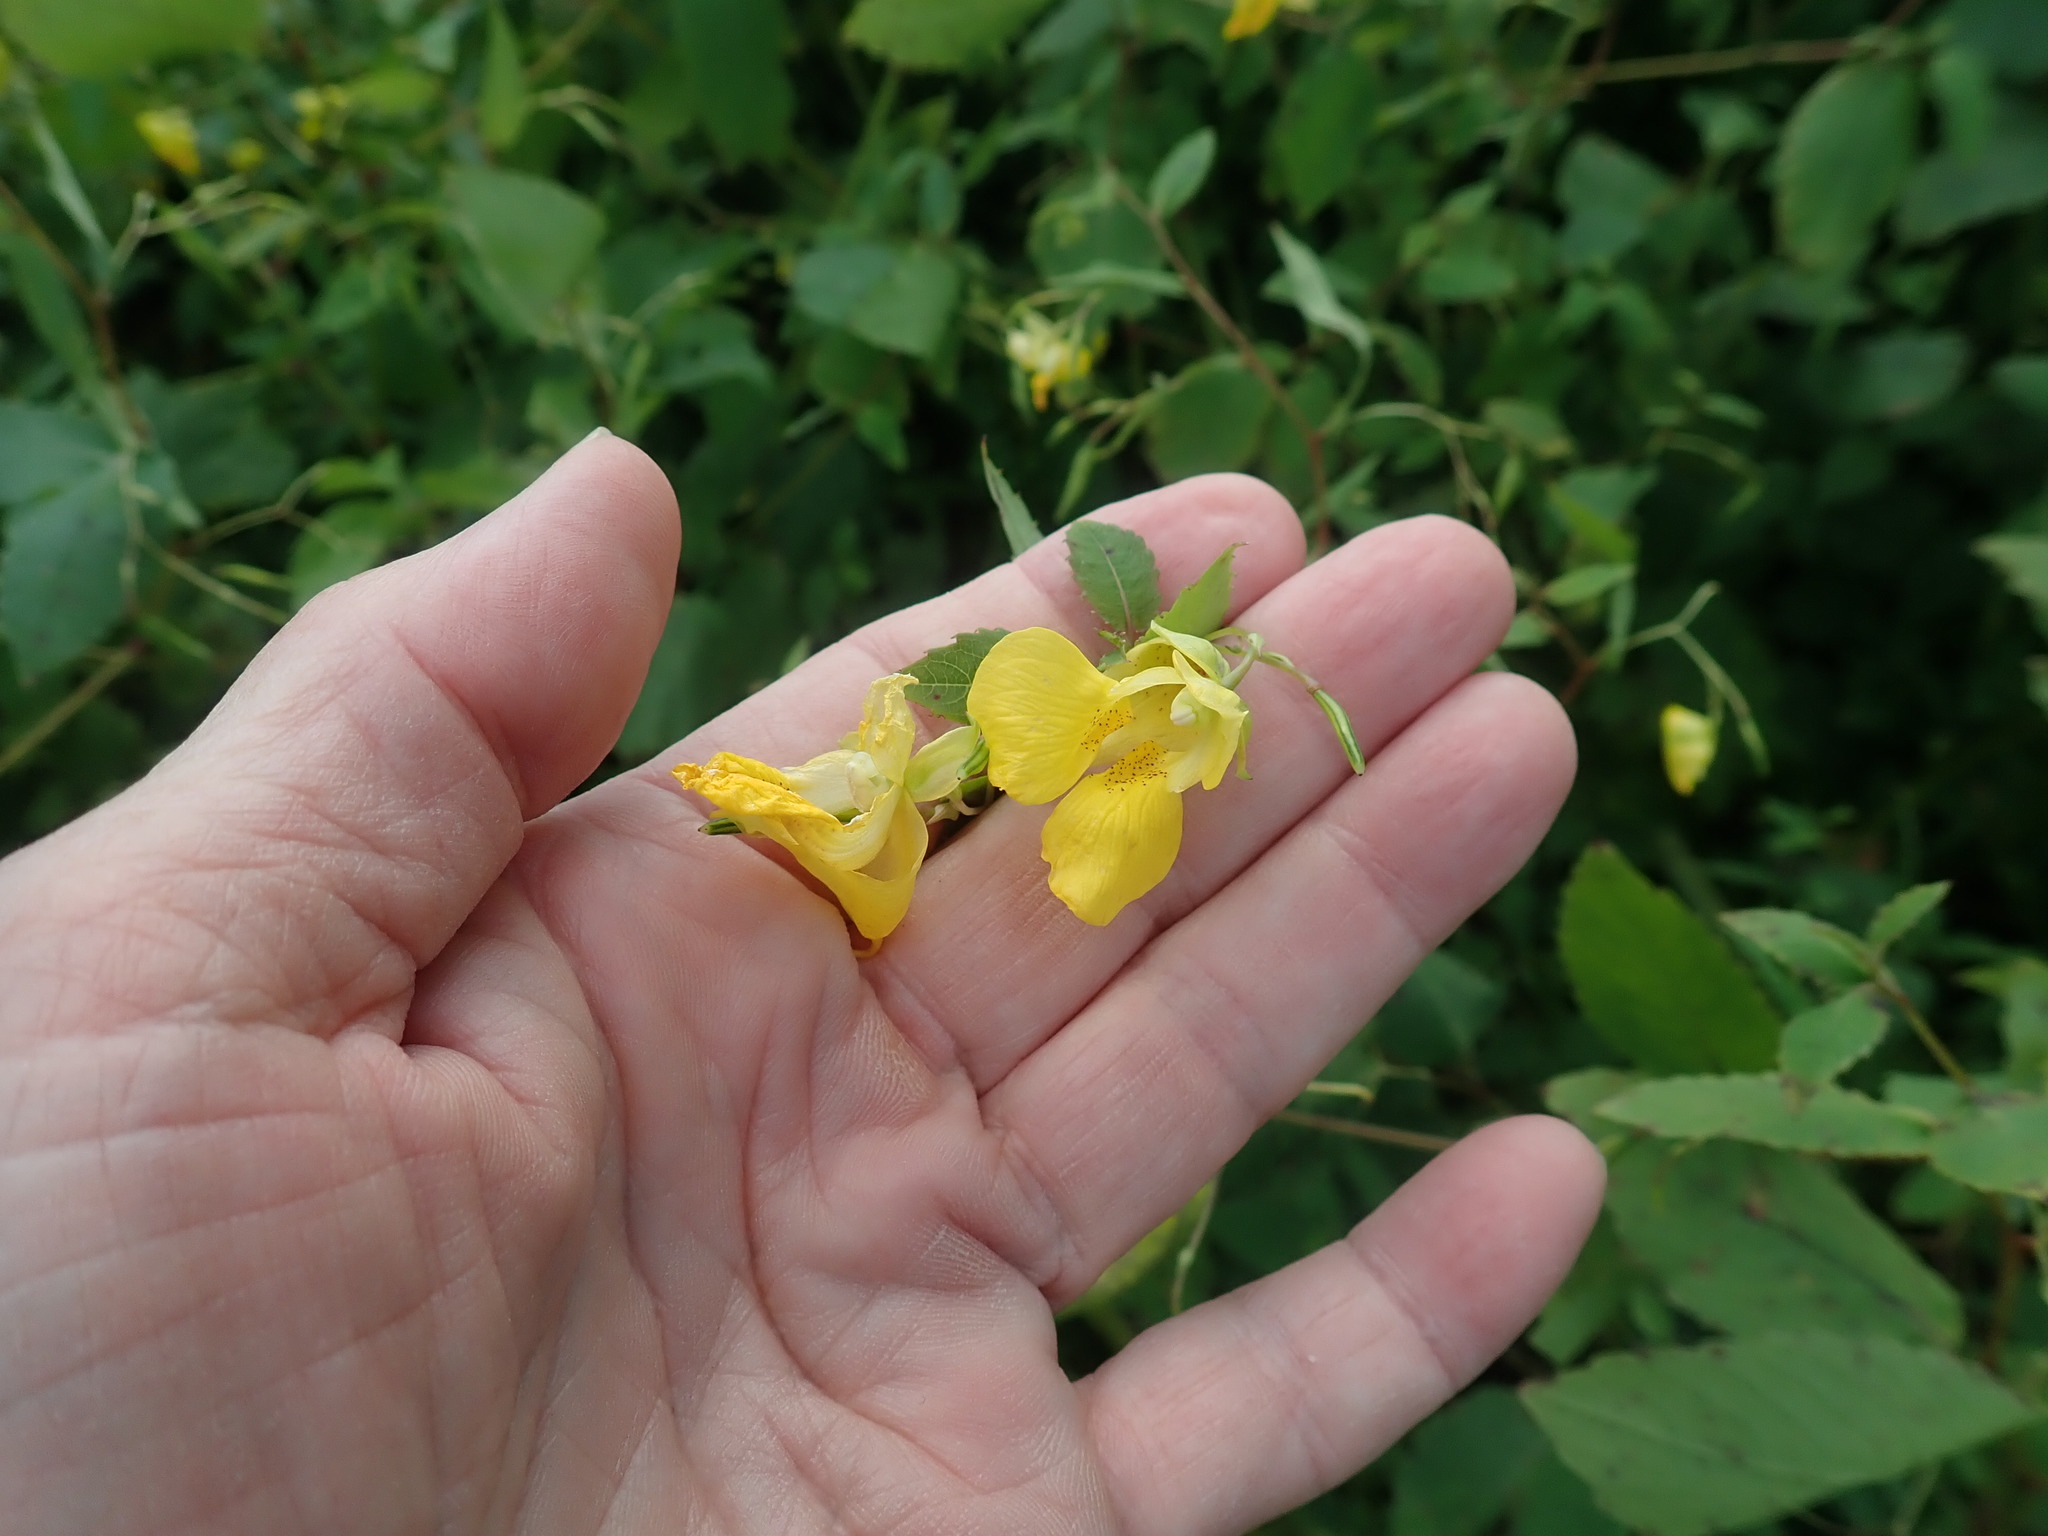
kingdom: Plantae
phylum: Tracheophyta
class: Magnoliopsida
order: Ericales
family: Balsaminaceae
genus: Impatiens
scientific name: Impatiens pallida
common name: Pale snapweed
